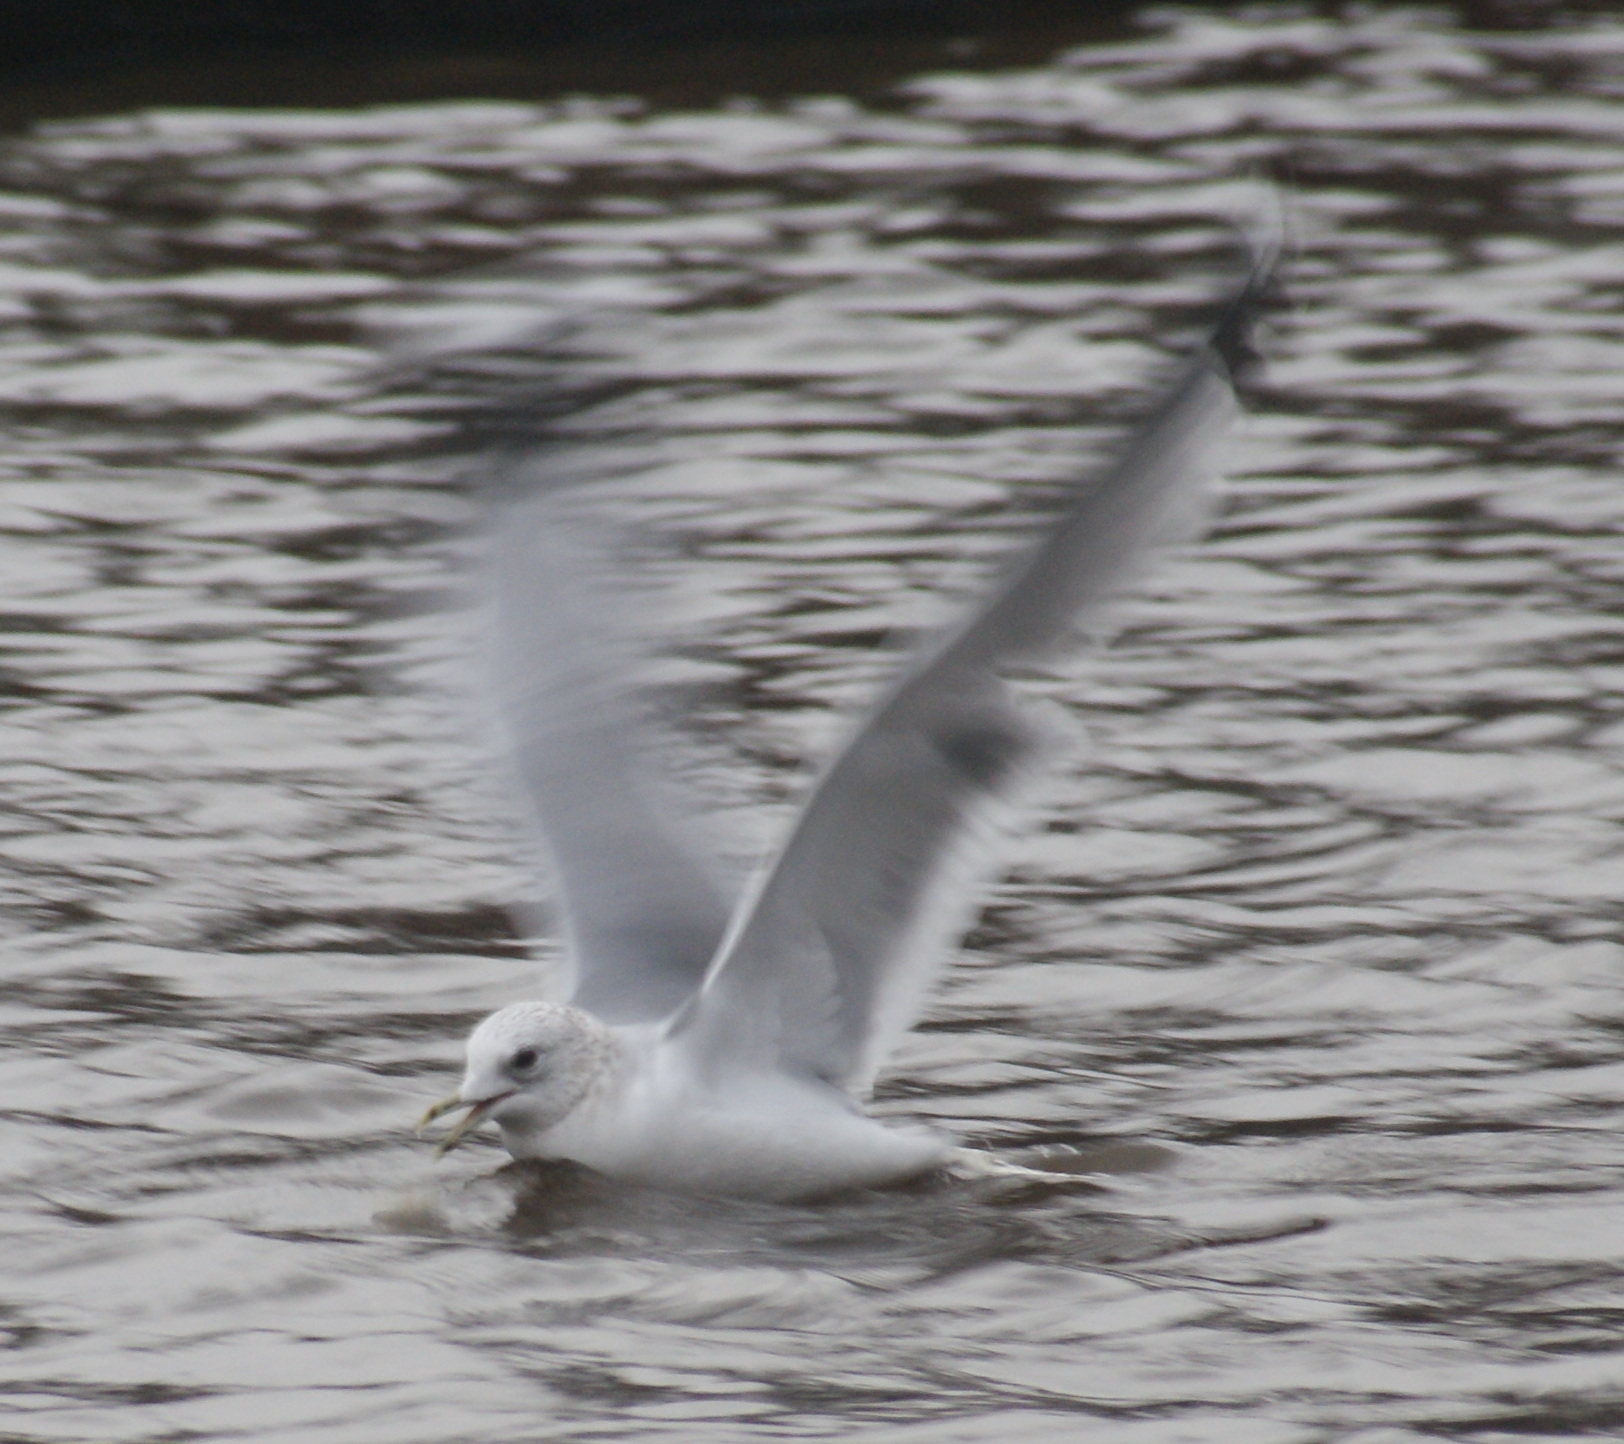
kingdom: Animalia
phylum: Chordata
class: Aves
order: Charadriiformes
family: Laridae
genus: Larus
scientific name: Larus canus
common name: Mew gull
